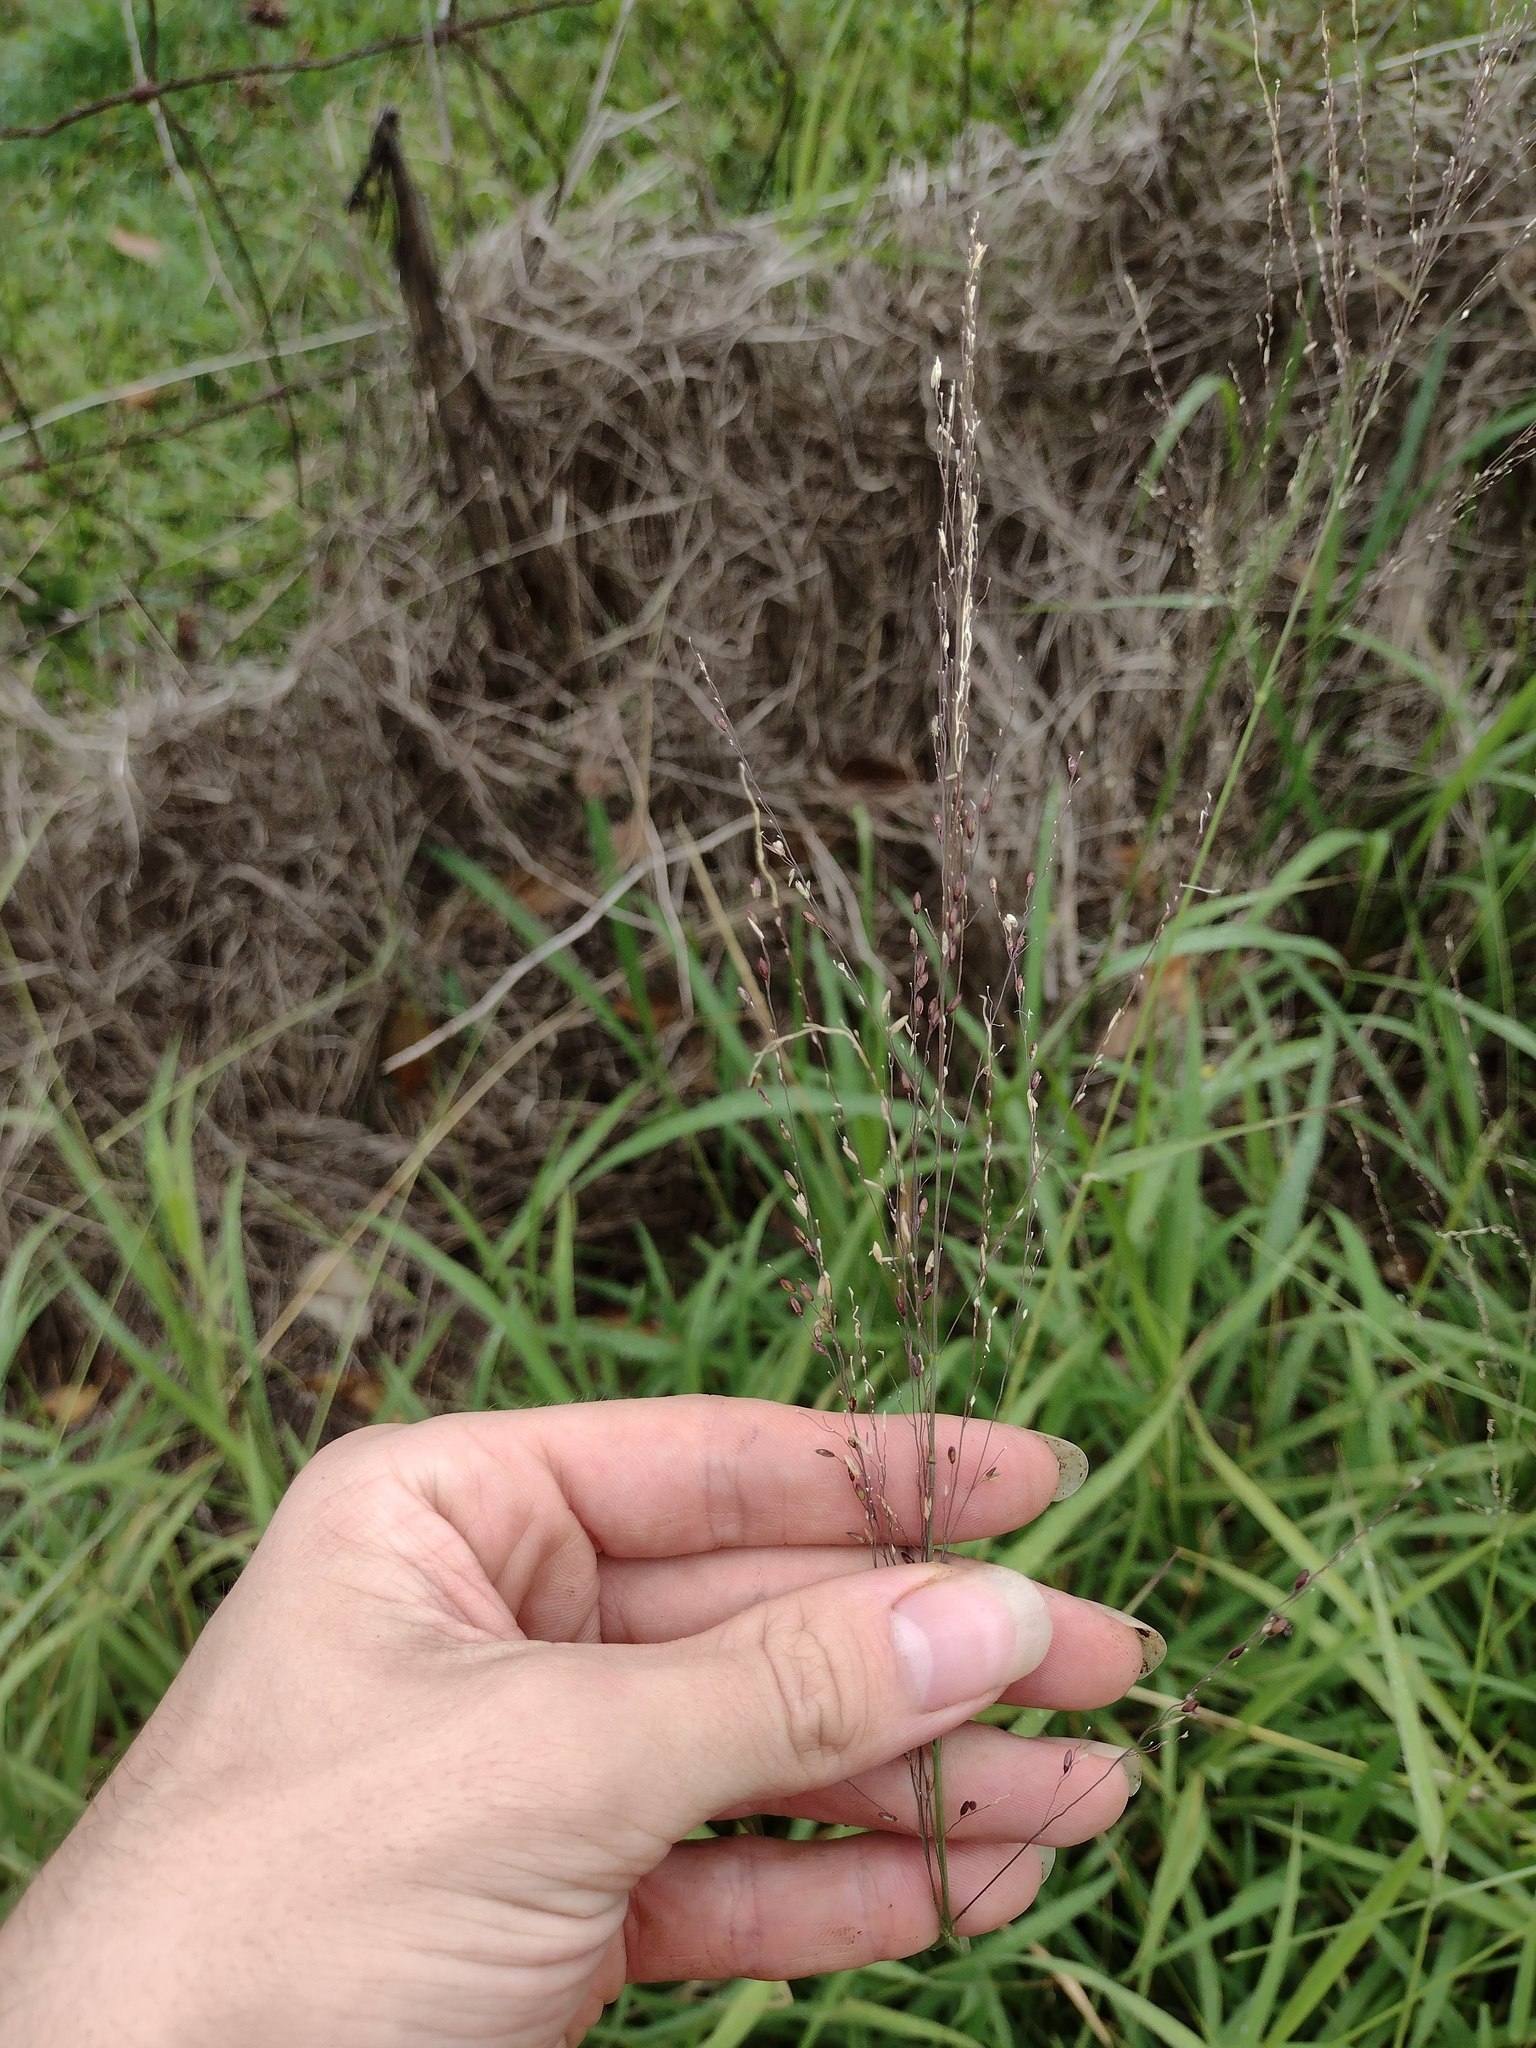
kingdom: Plantae
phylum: Tracheophyta
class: Liliopsida
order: Poales
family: Poaceae
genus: Megathyrsus
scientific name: Megathyrsus maximus
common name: Guineagrass
